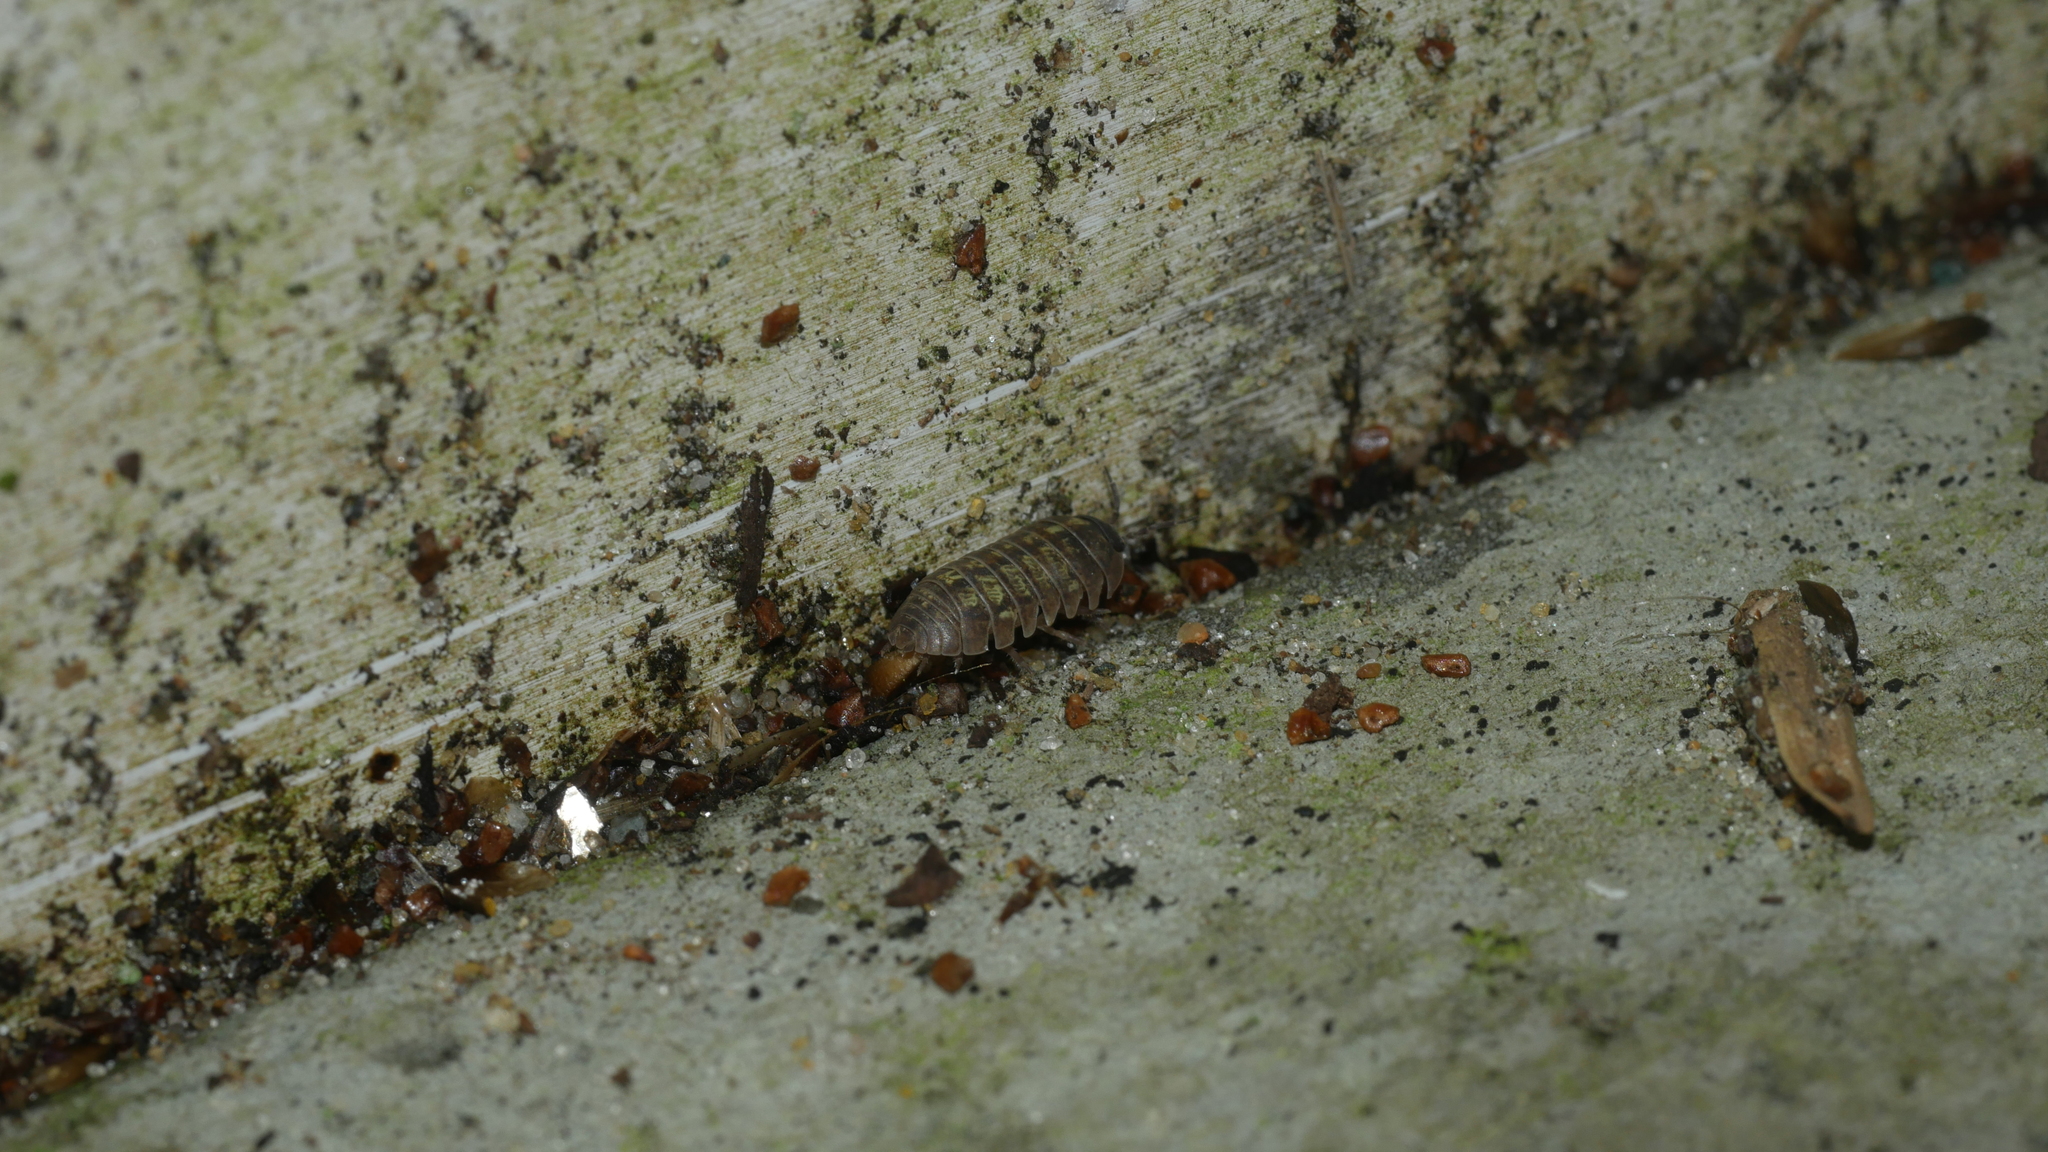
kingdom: Animalia
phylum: Arthropoda
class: Malacostraca
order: Isopoda
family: Armadillidiidae
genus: Armadillidium
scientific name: Armadillidium vulgare
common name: Common pill woodlouse
